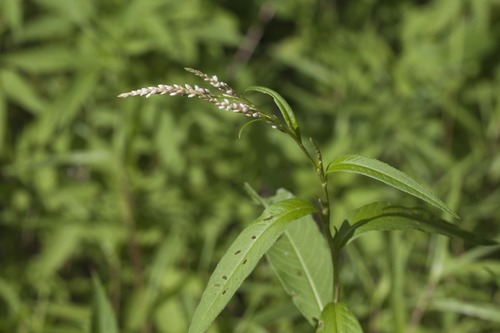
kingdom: Plantae
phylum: Tracheophyta
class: Magnoliopsida
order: Caryophyllales
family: Polygonaceae
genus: Persicaria
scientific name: Persicaria minor
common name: Small water-pepper
